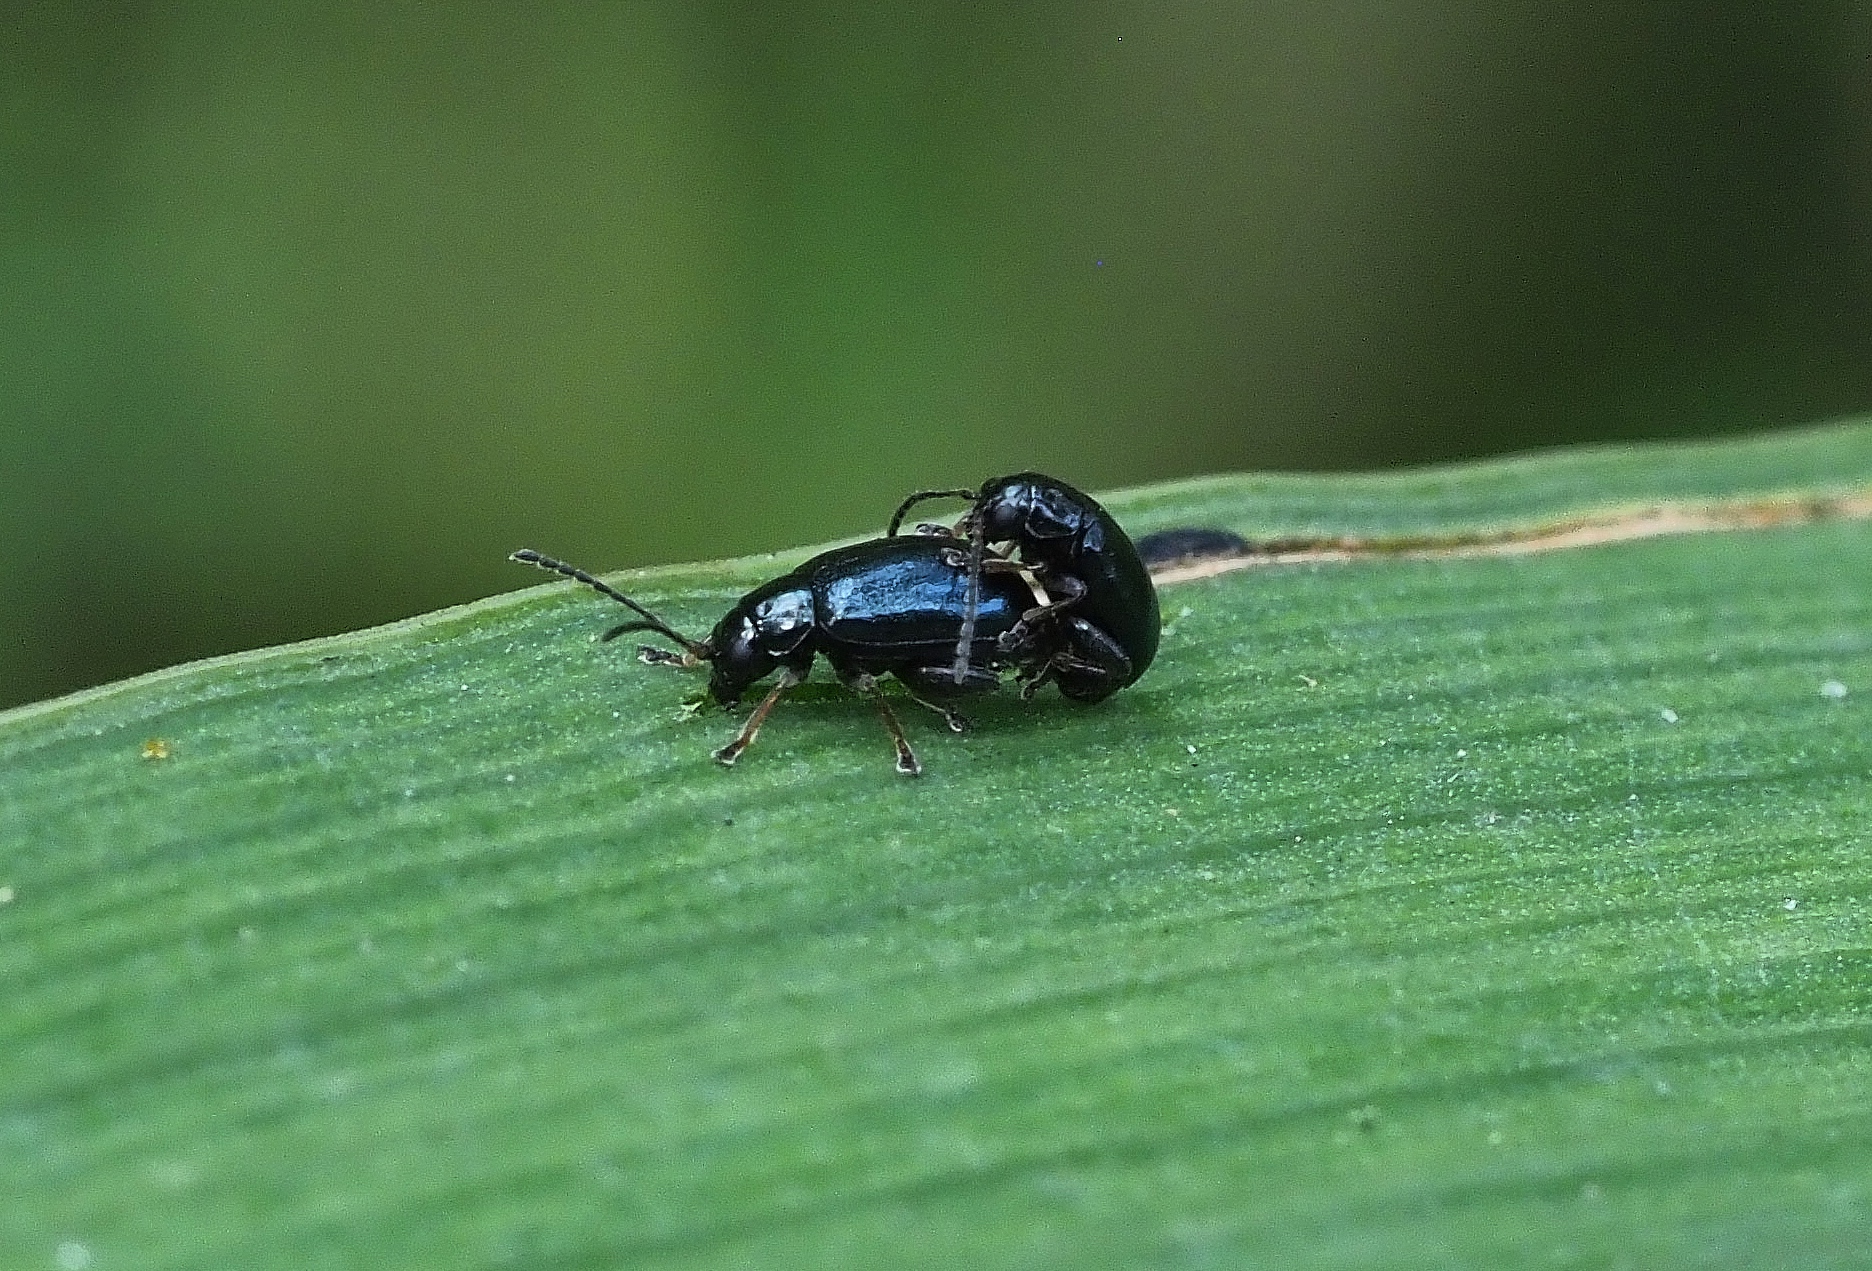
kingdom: Animalia
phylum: Arthropoda
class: Insecta
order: Coleoptera
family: Chrysomelidae
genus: Aphthona
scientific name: Aphthona nonstriata
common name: Iris flea beetle
